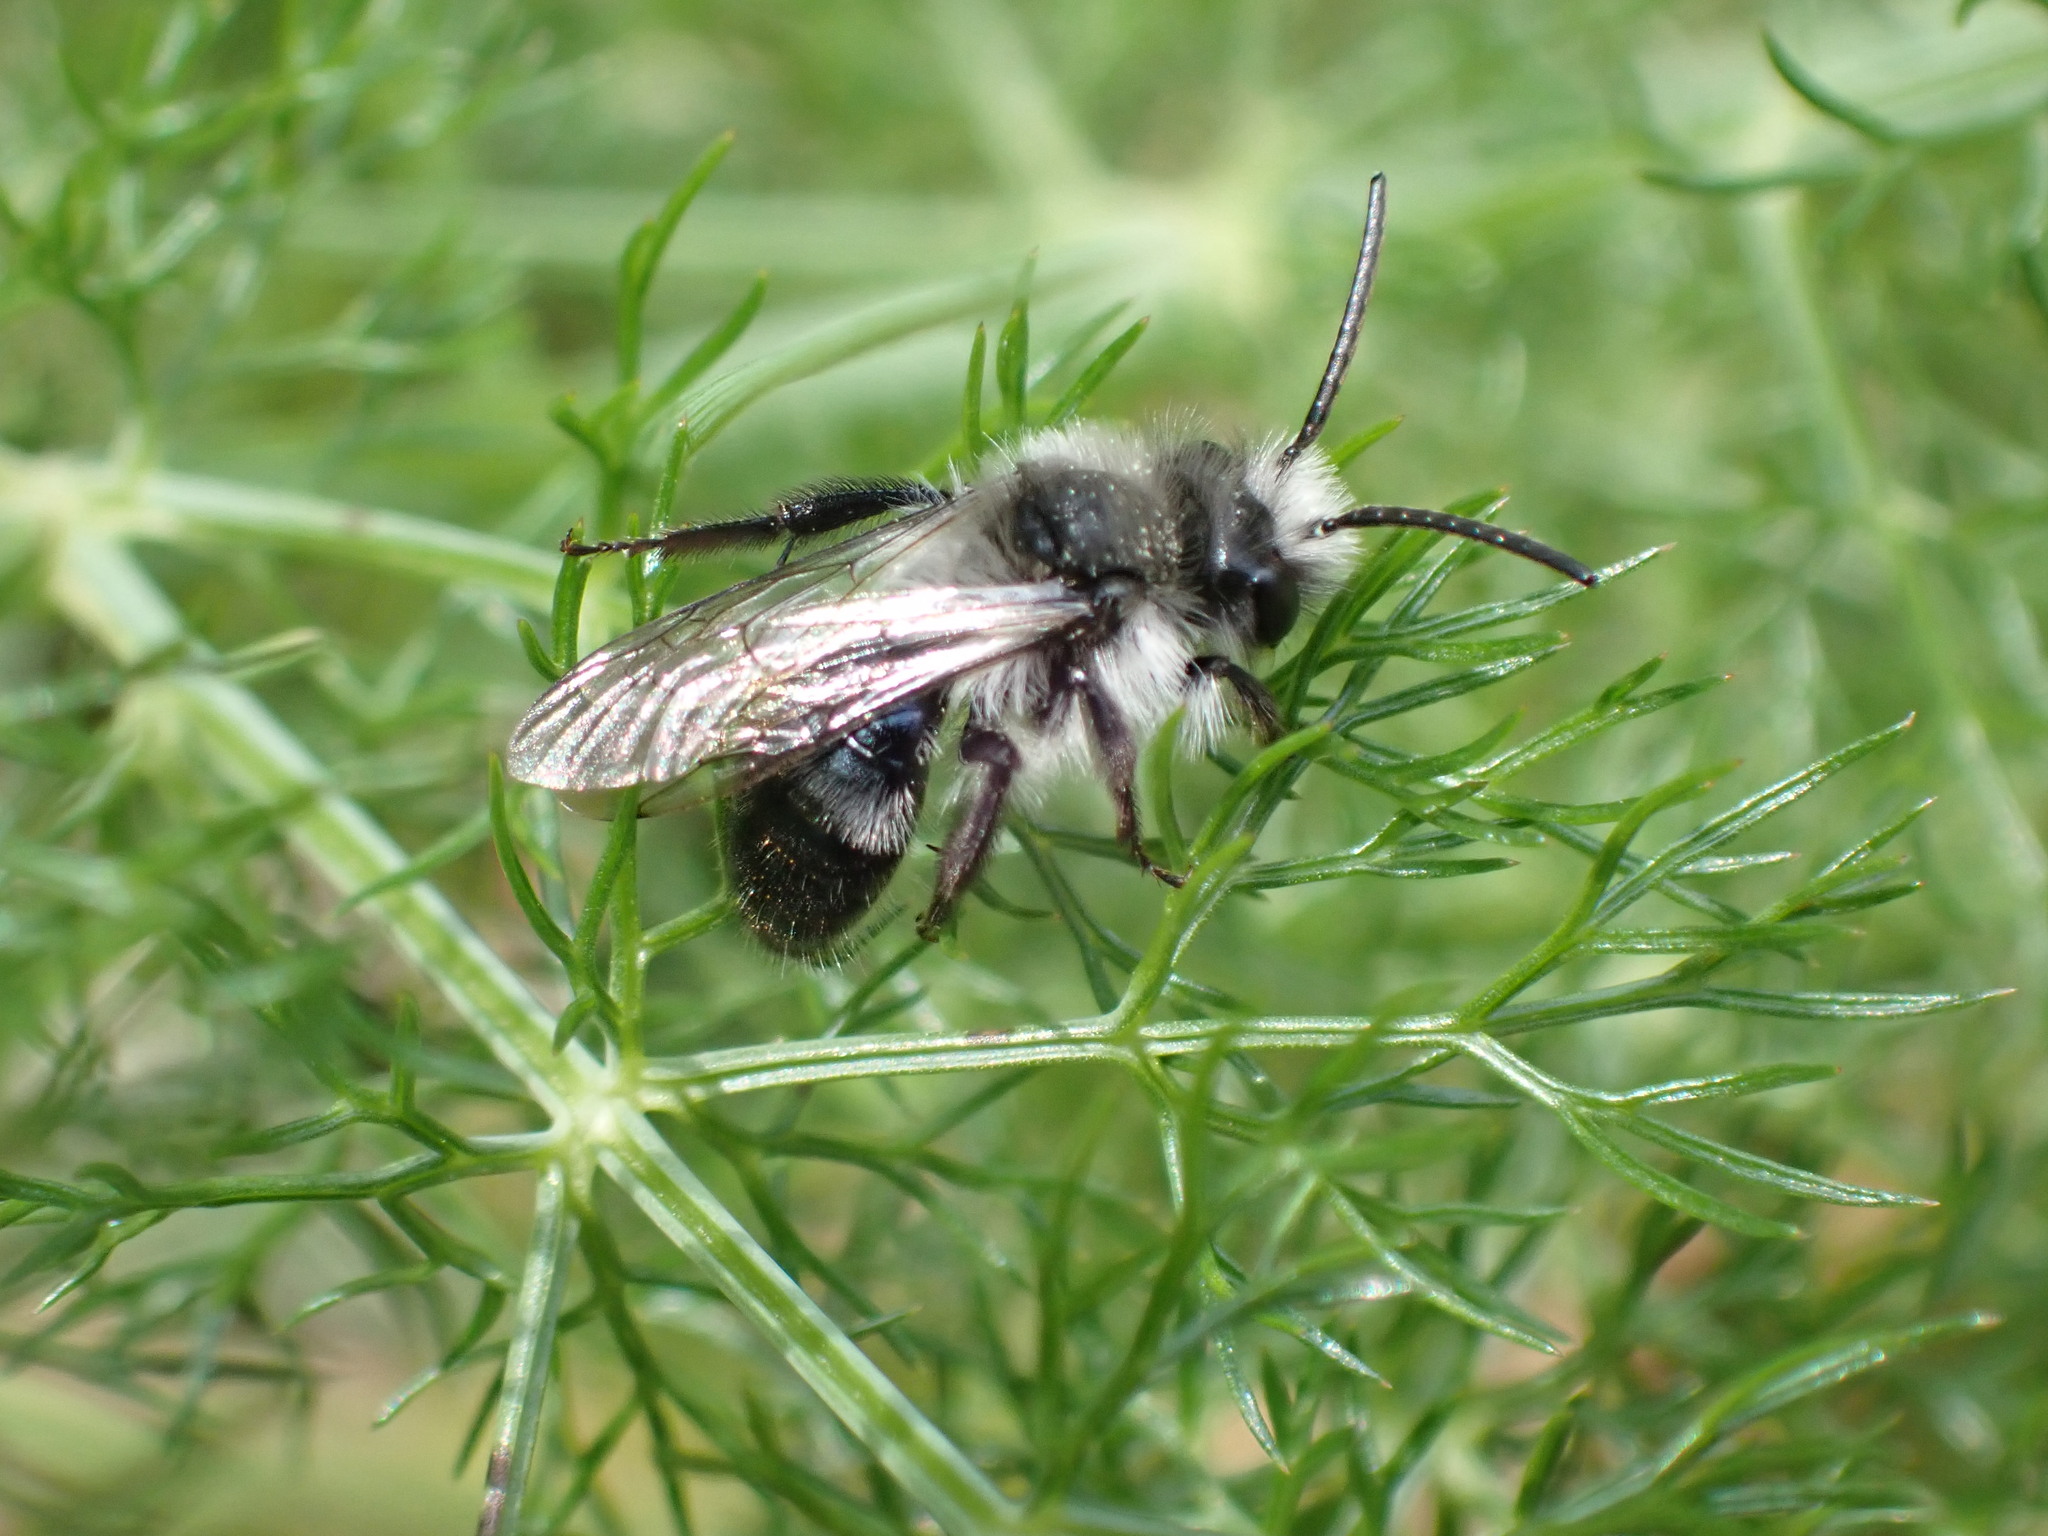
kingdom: Animalia
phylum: Arthropoda
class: Insecta
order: Hymenoptera
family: Andrenidae
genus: Andrena
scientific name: Andrena cineraria
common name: Ashy mining bee
